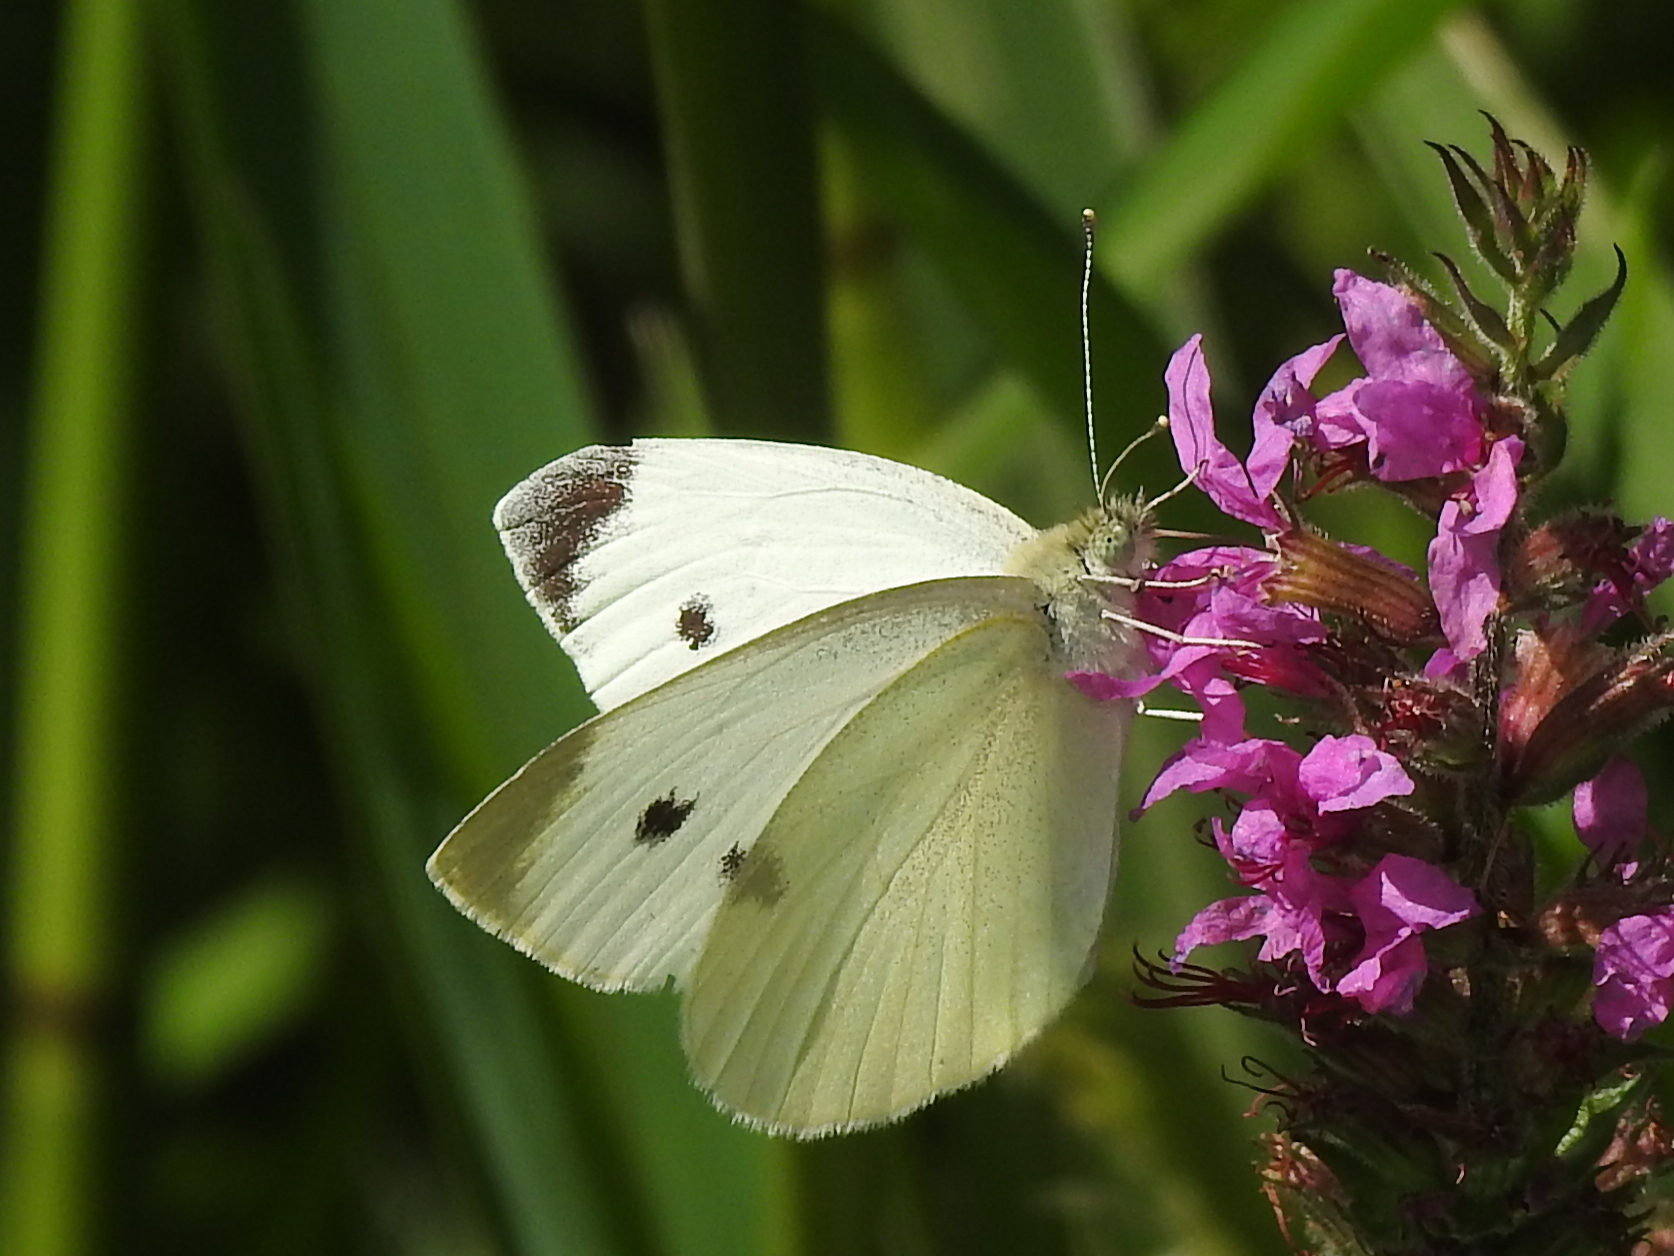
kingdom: Animalia
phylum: Arthropoda
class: Insecta
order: Lepidoptera
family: Pieridae
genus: Pieris
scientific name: Pieris rapae
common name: Small white
